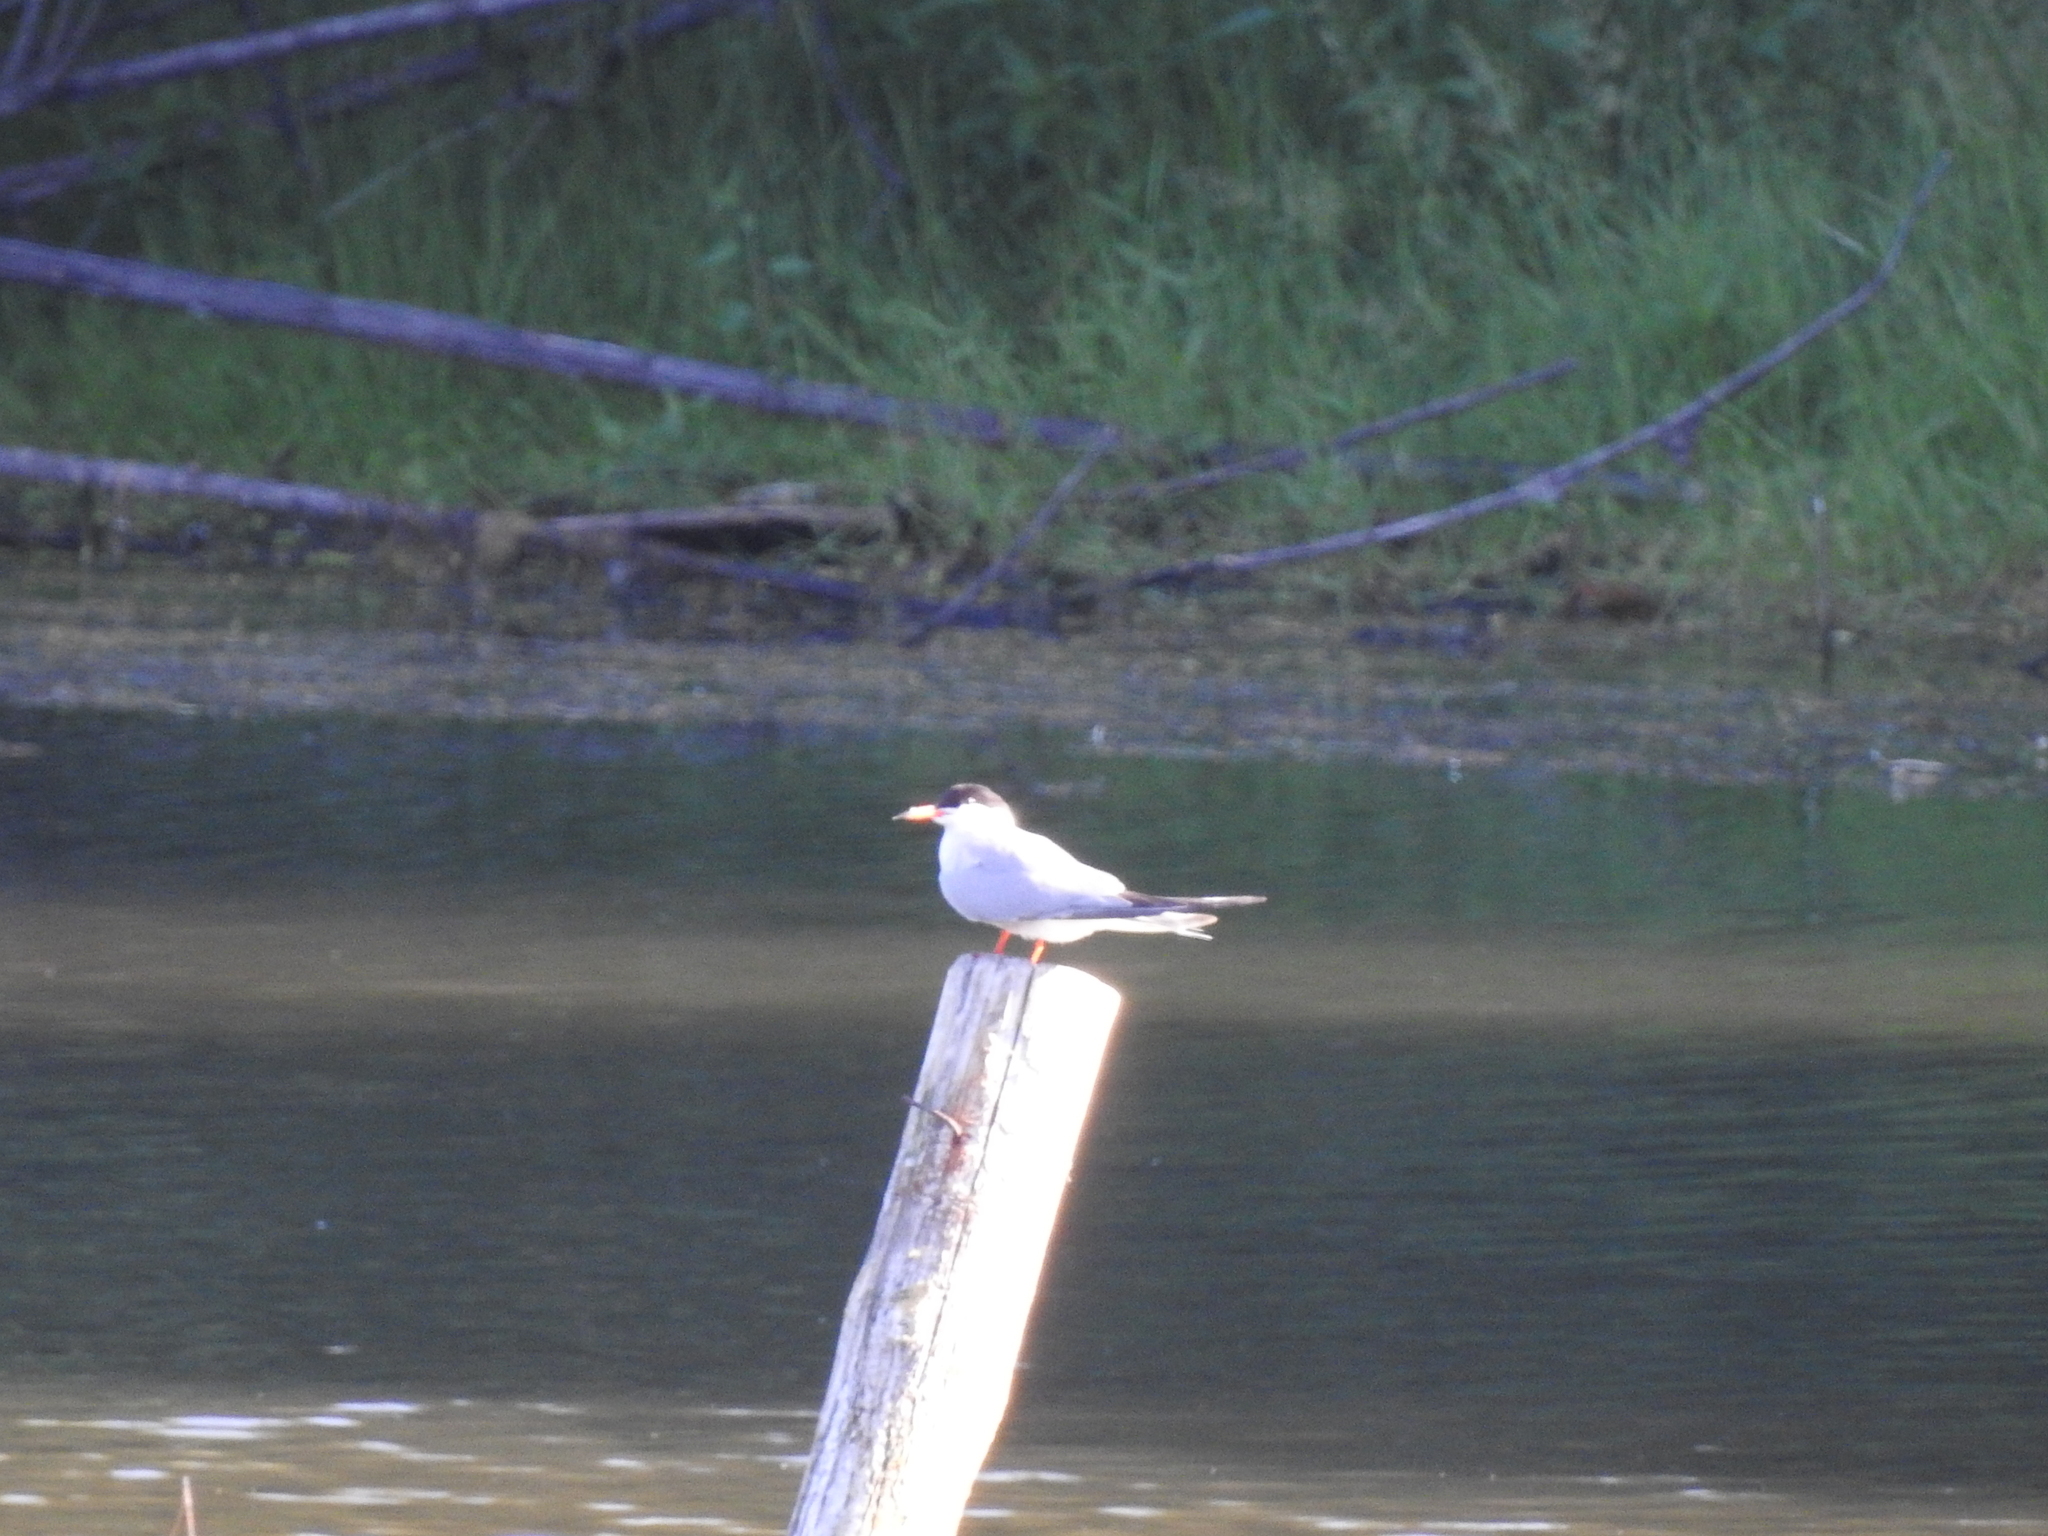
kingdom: Animalia
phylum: Chordata
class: Aves
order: Charadriiformes
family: Laridae
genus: Sterna
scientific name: Sterna hirundo
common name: Common tern
